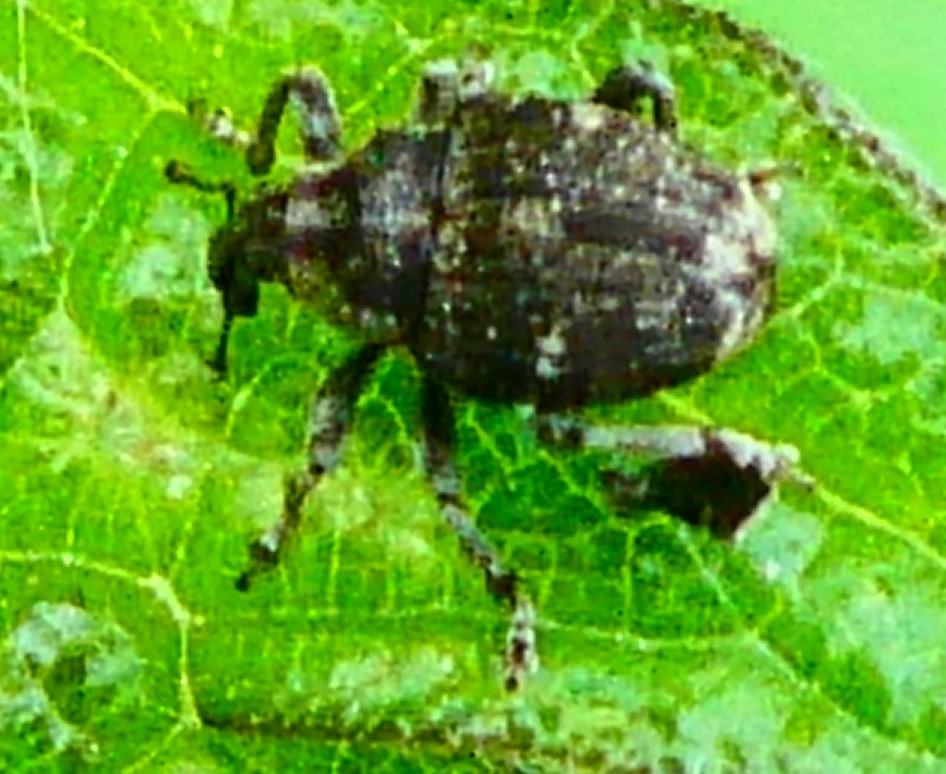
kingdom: Animalia
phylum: Arthropoda
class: Insecta
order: Coleoptera
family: Curculionidae
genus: Nedyus
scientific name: Nedyus quadrimaculatus
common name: Small nettle weevil
